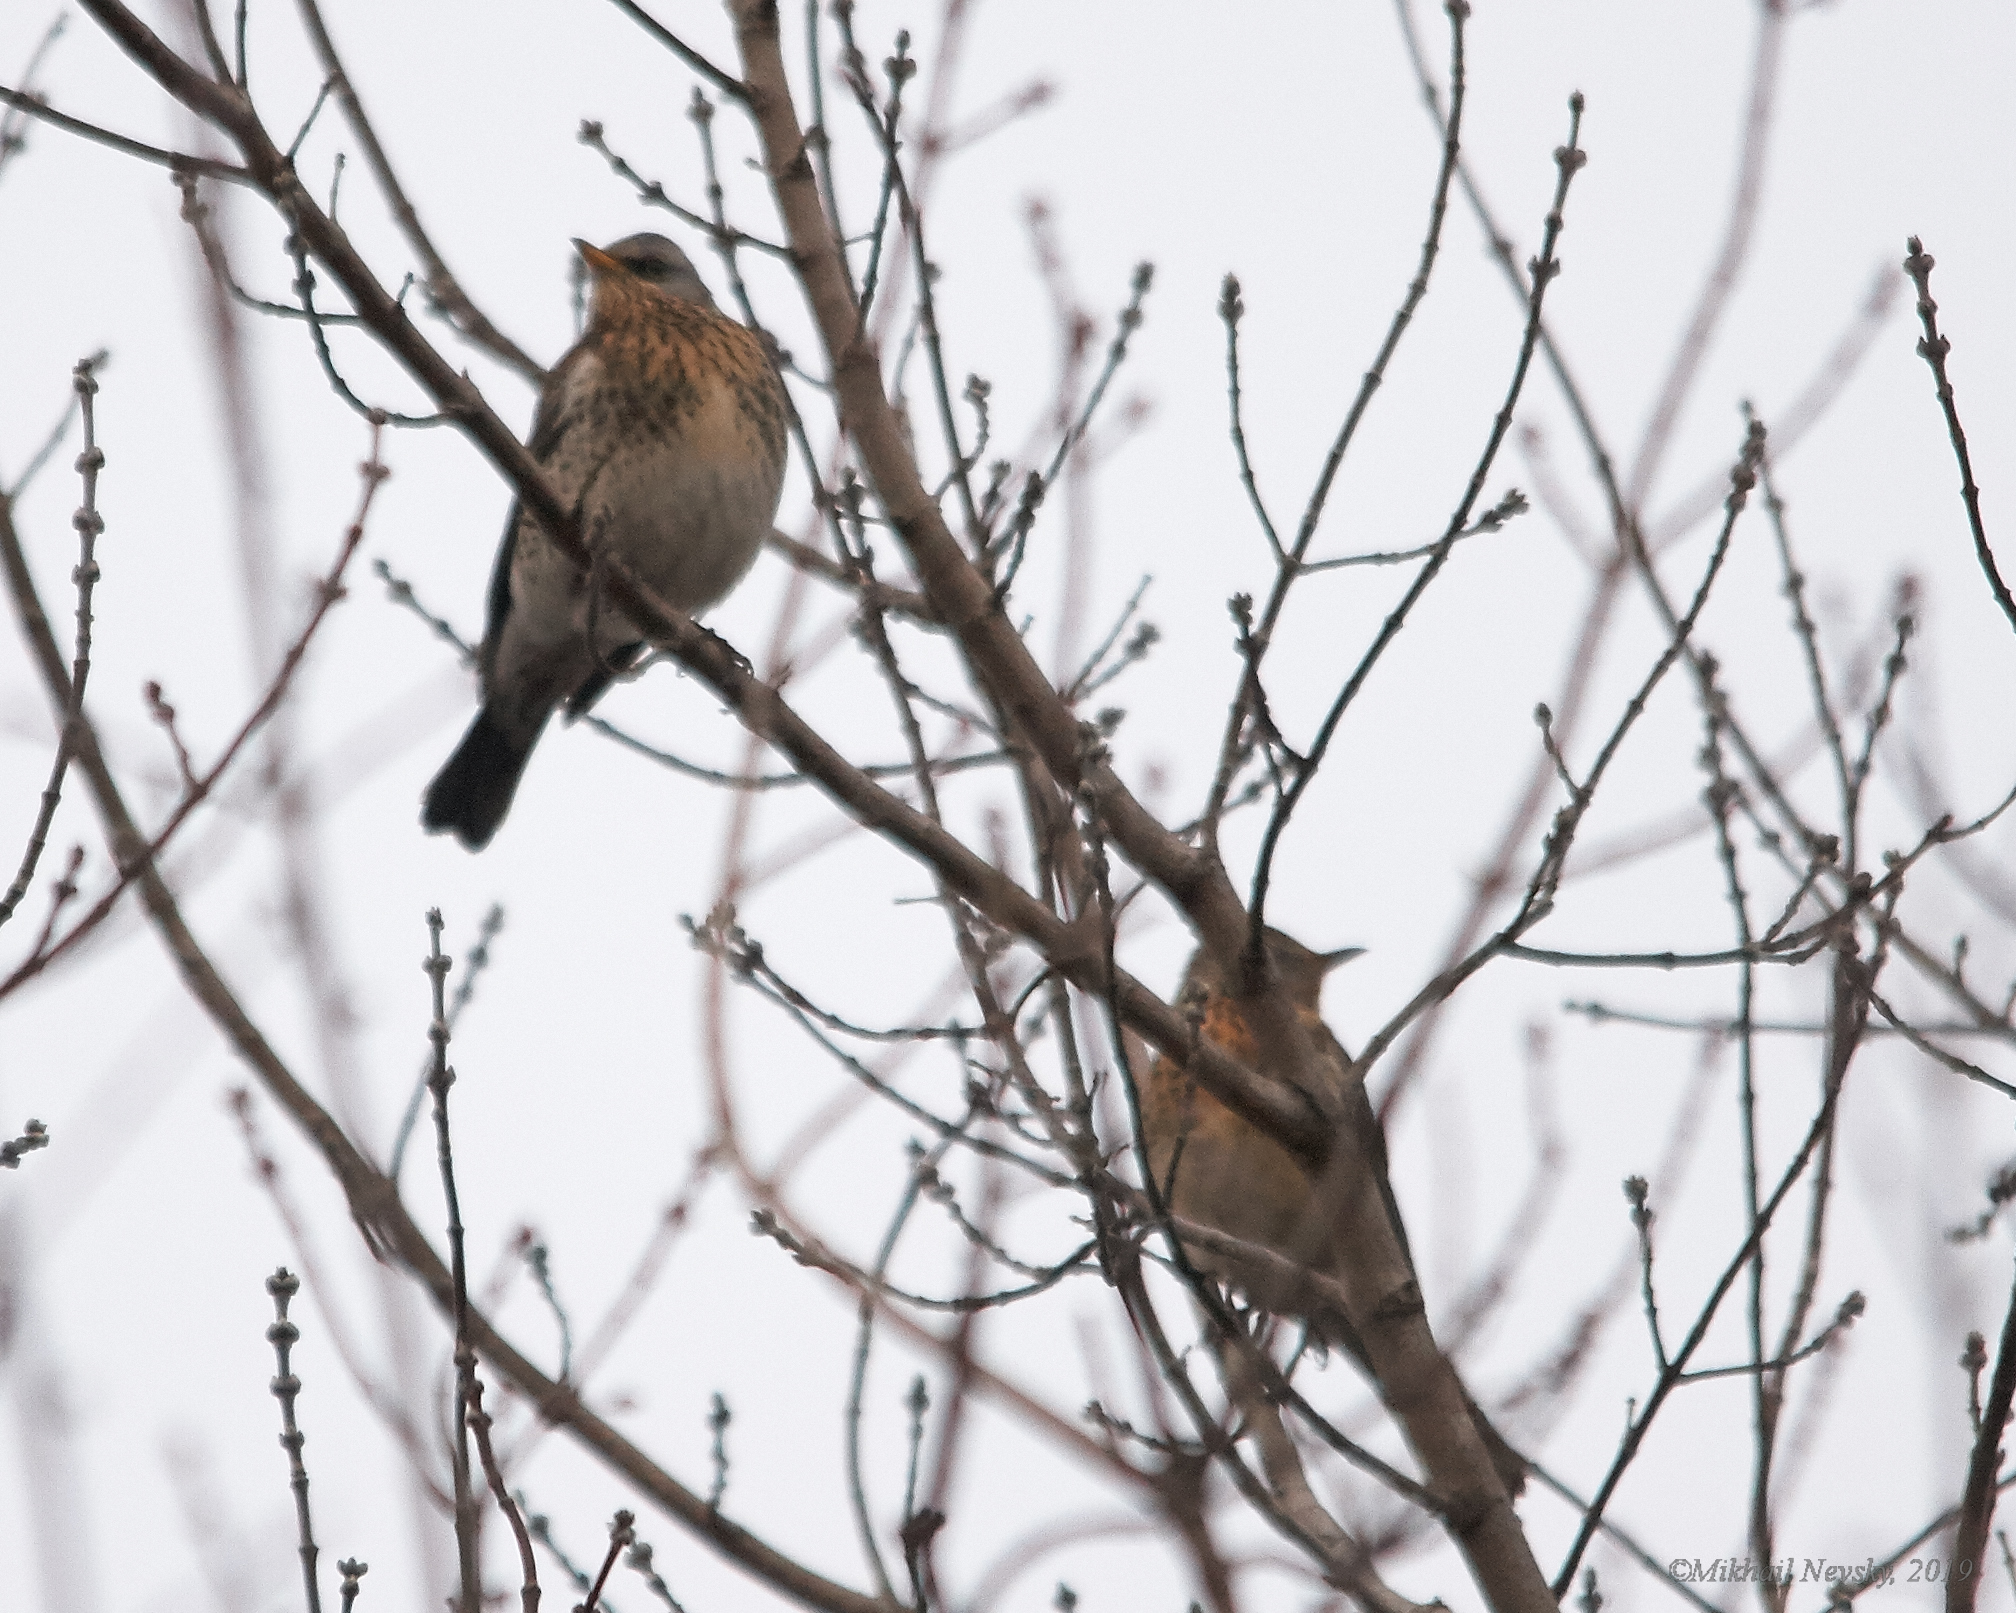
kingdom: Animalia
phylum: Chordata
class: Aves
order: Passeriformes
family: Turdidae
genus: Turdus
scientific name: Turdus pilaris
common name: Fieldfare
